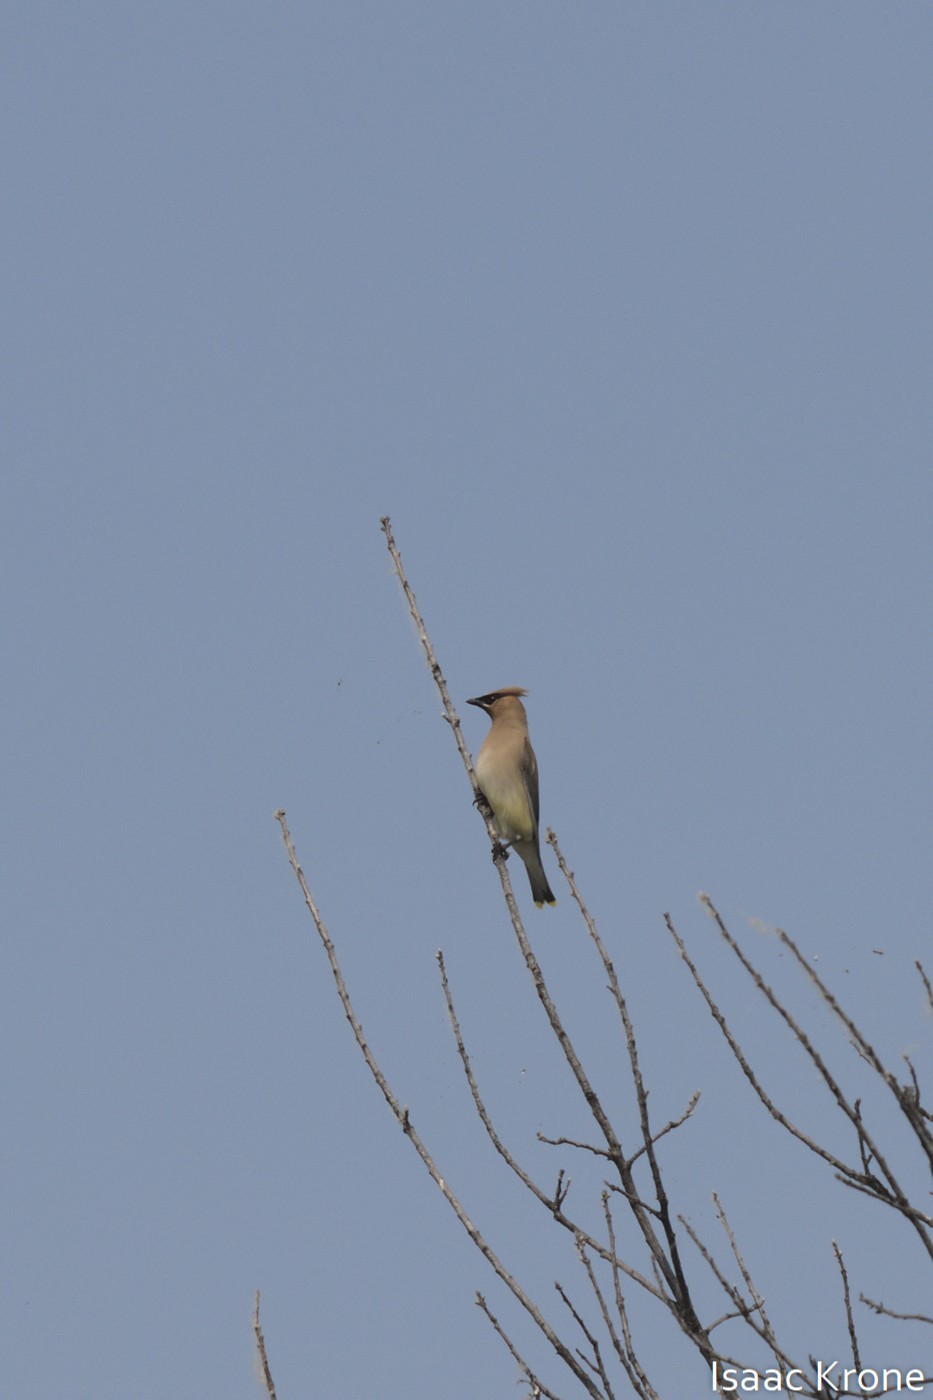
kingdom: Animalia
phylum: Chordata
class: Aves
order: Passeriformes
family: Bombycillidae
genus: Bombycilla
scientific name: Bombycilla cedrorum
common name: Cedar waxwing
